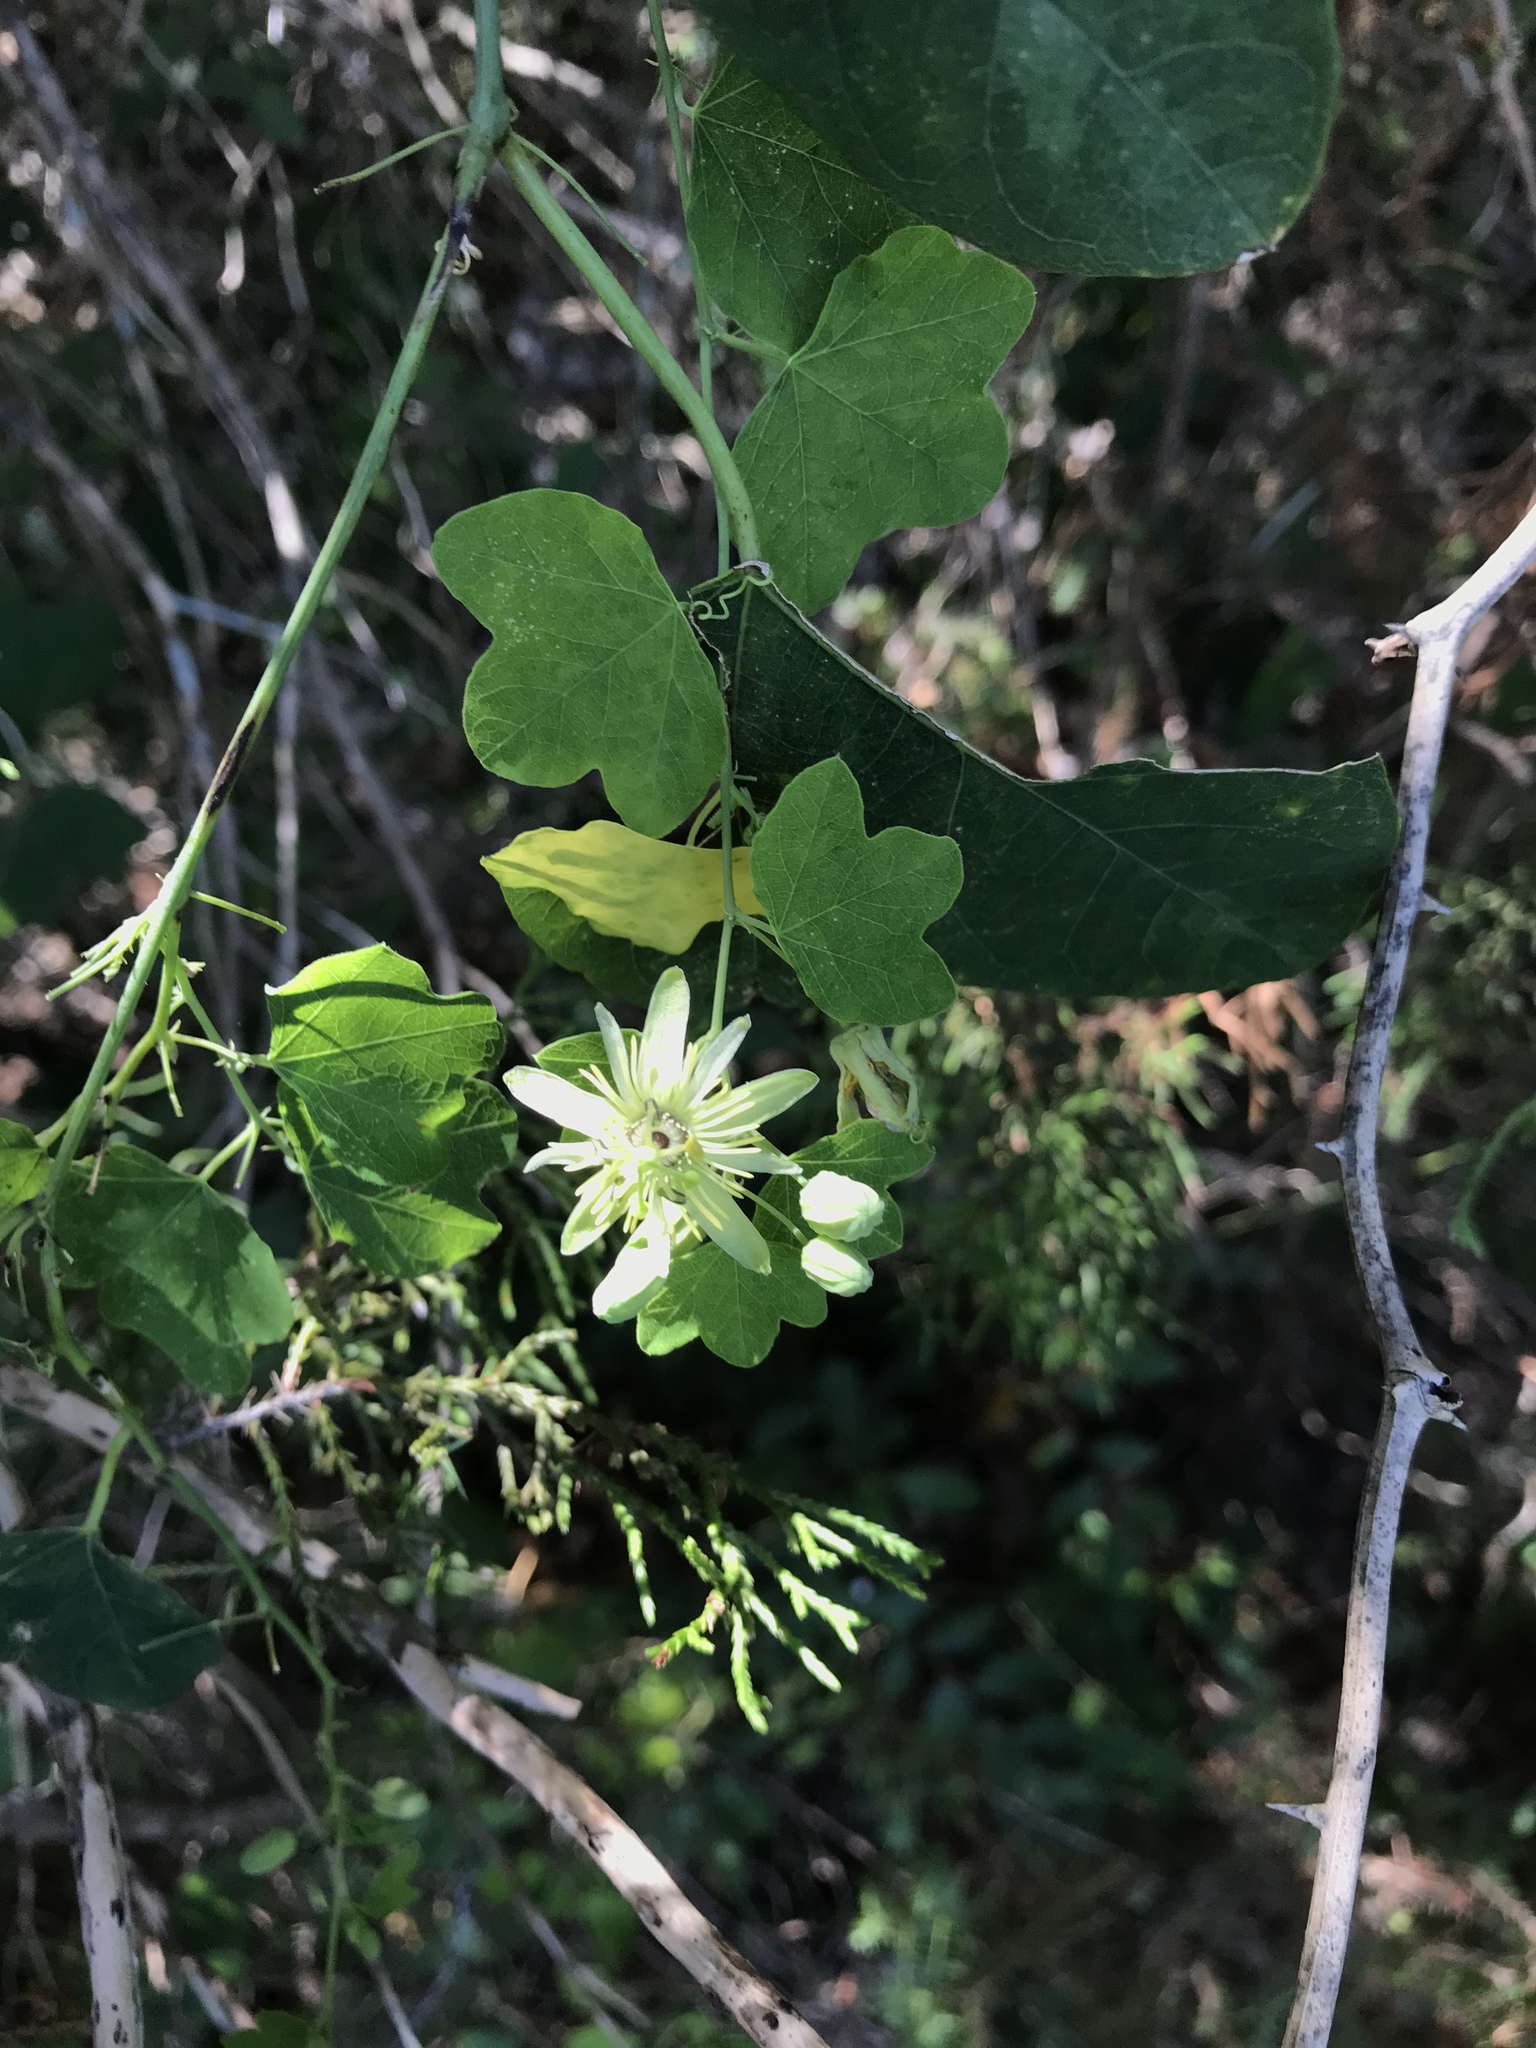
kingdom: Plantae
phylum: Tracheophyta
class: Magnoliopsida
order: Malpighiales
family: Passifloraceae
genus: Passiflora
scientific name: Passiflora lutea
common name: Yellow passionflower
